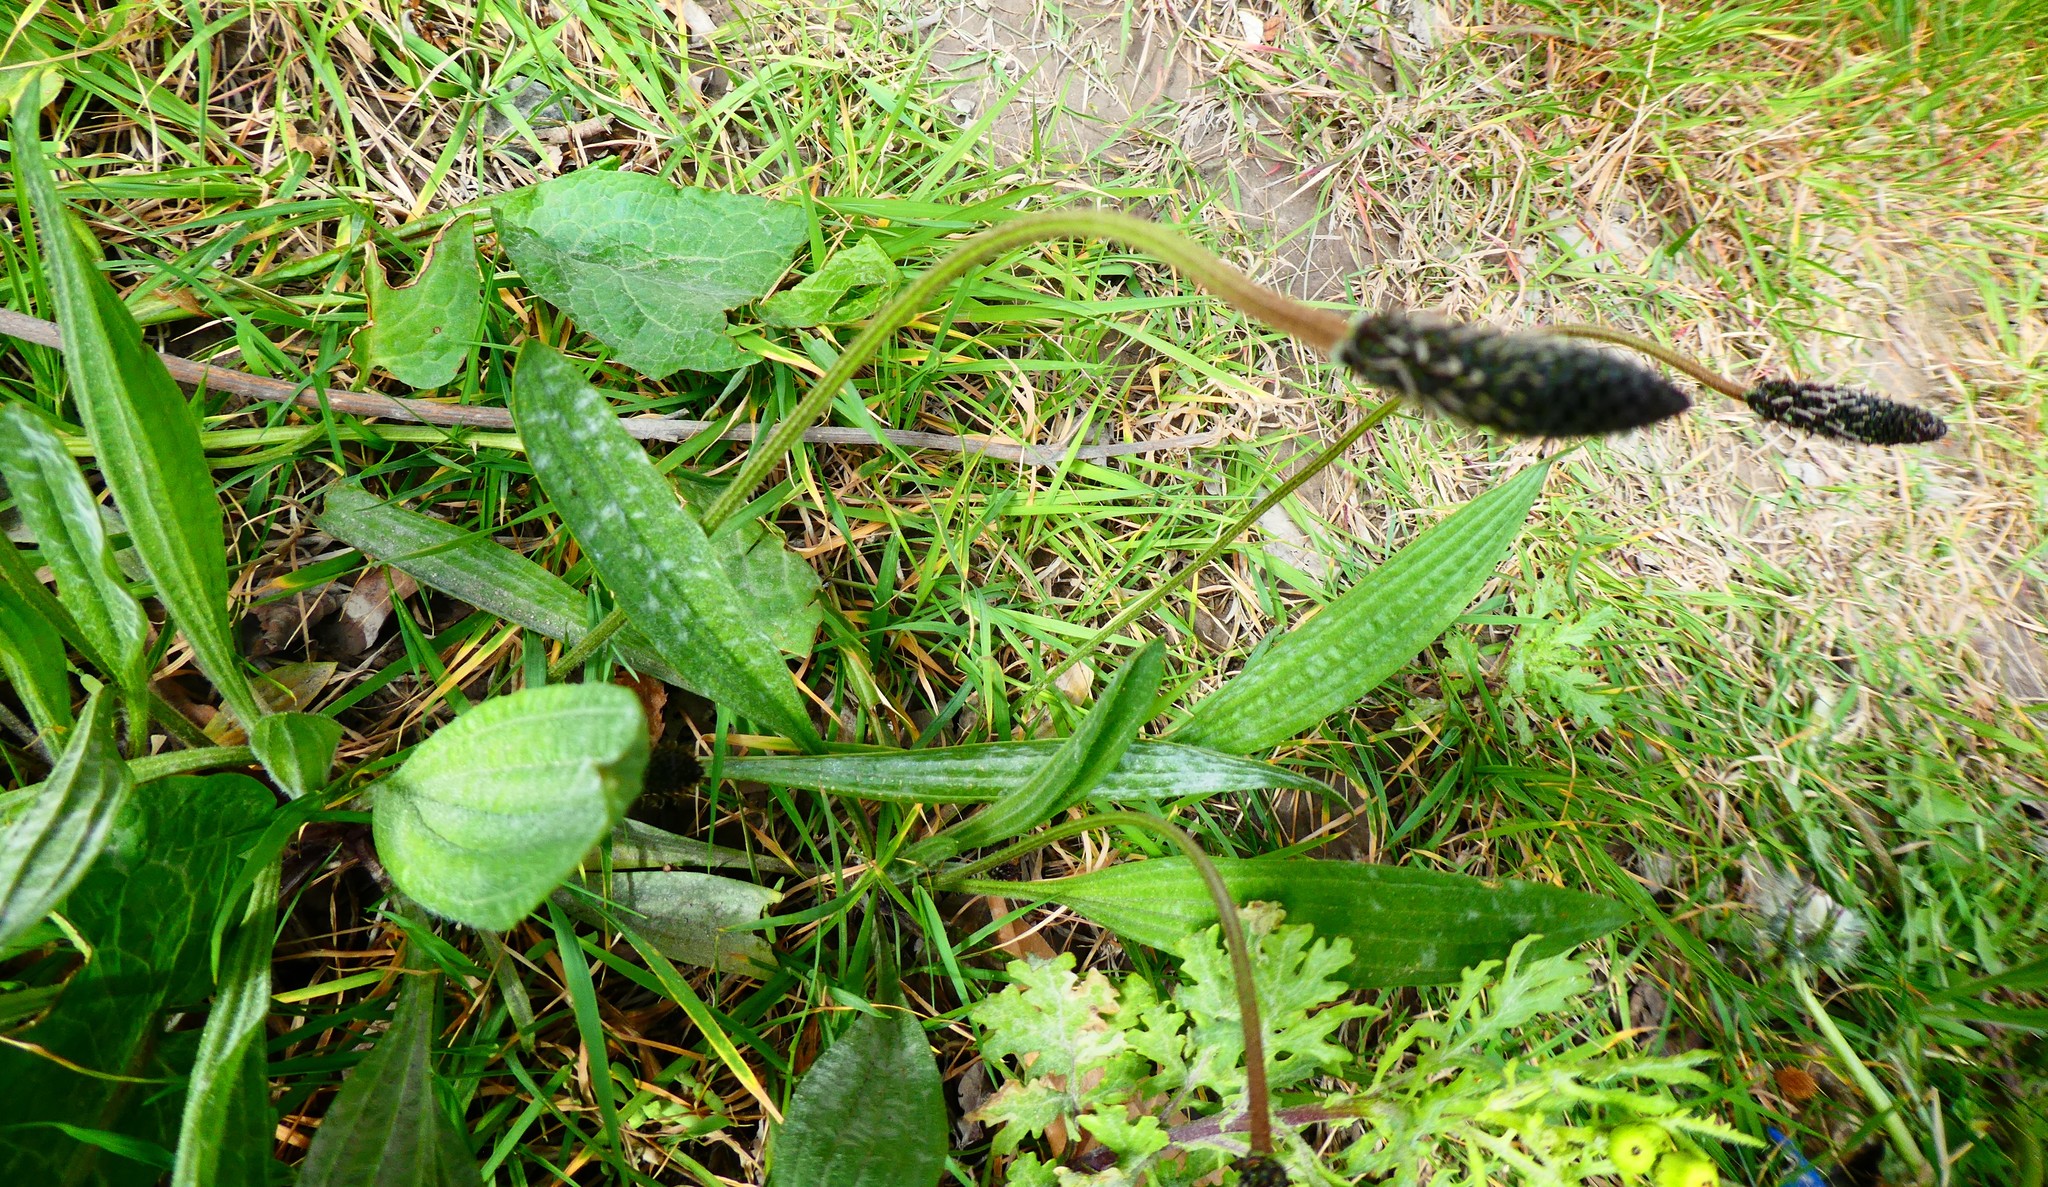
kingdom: Plantae
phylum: Tracheophyta
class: Magnoliopsida
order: Lamiales
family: Plantaginaceae
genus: Plantago
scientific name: Plantago lanceolata
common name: Ribwort plantain
